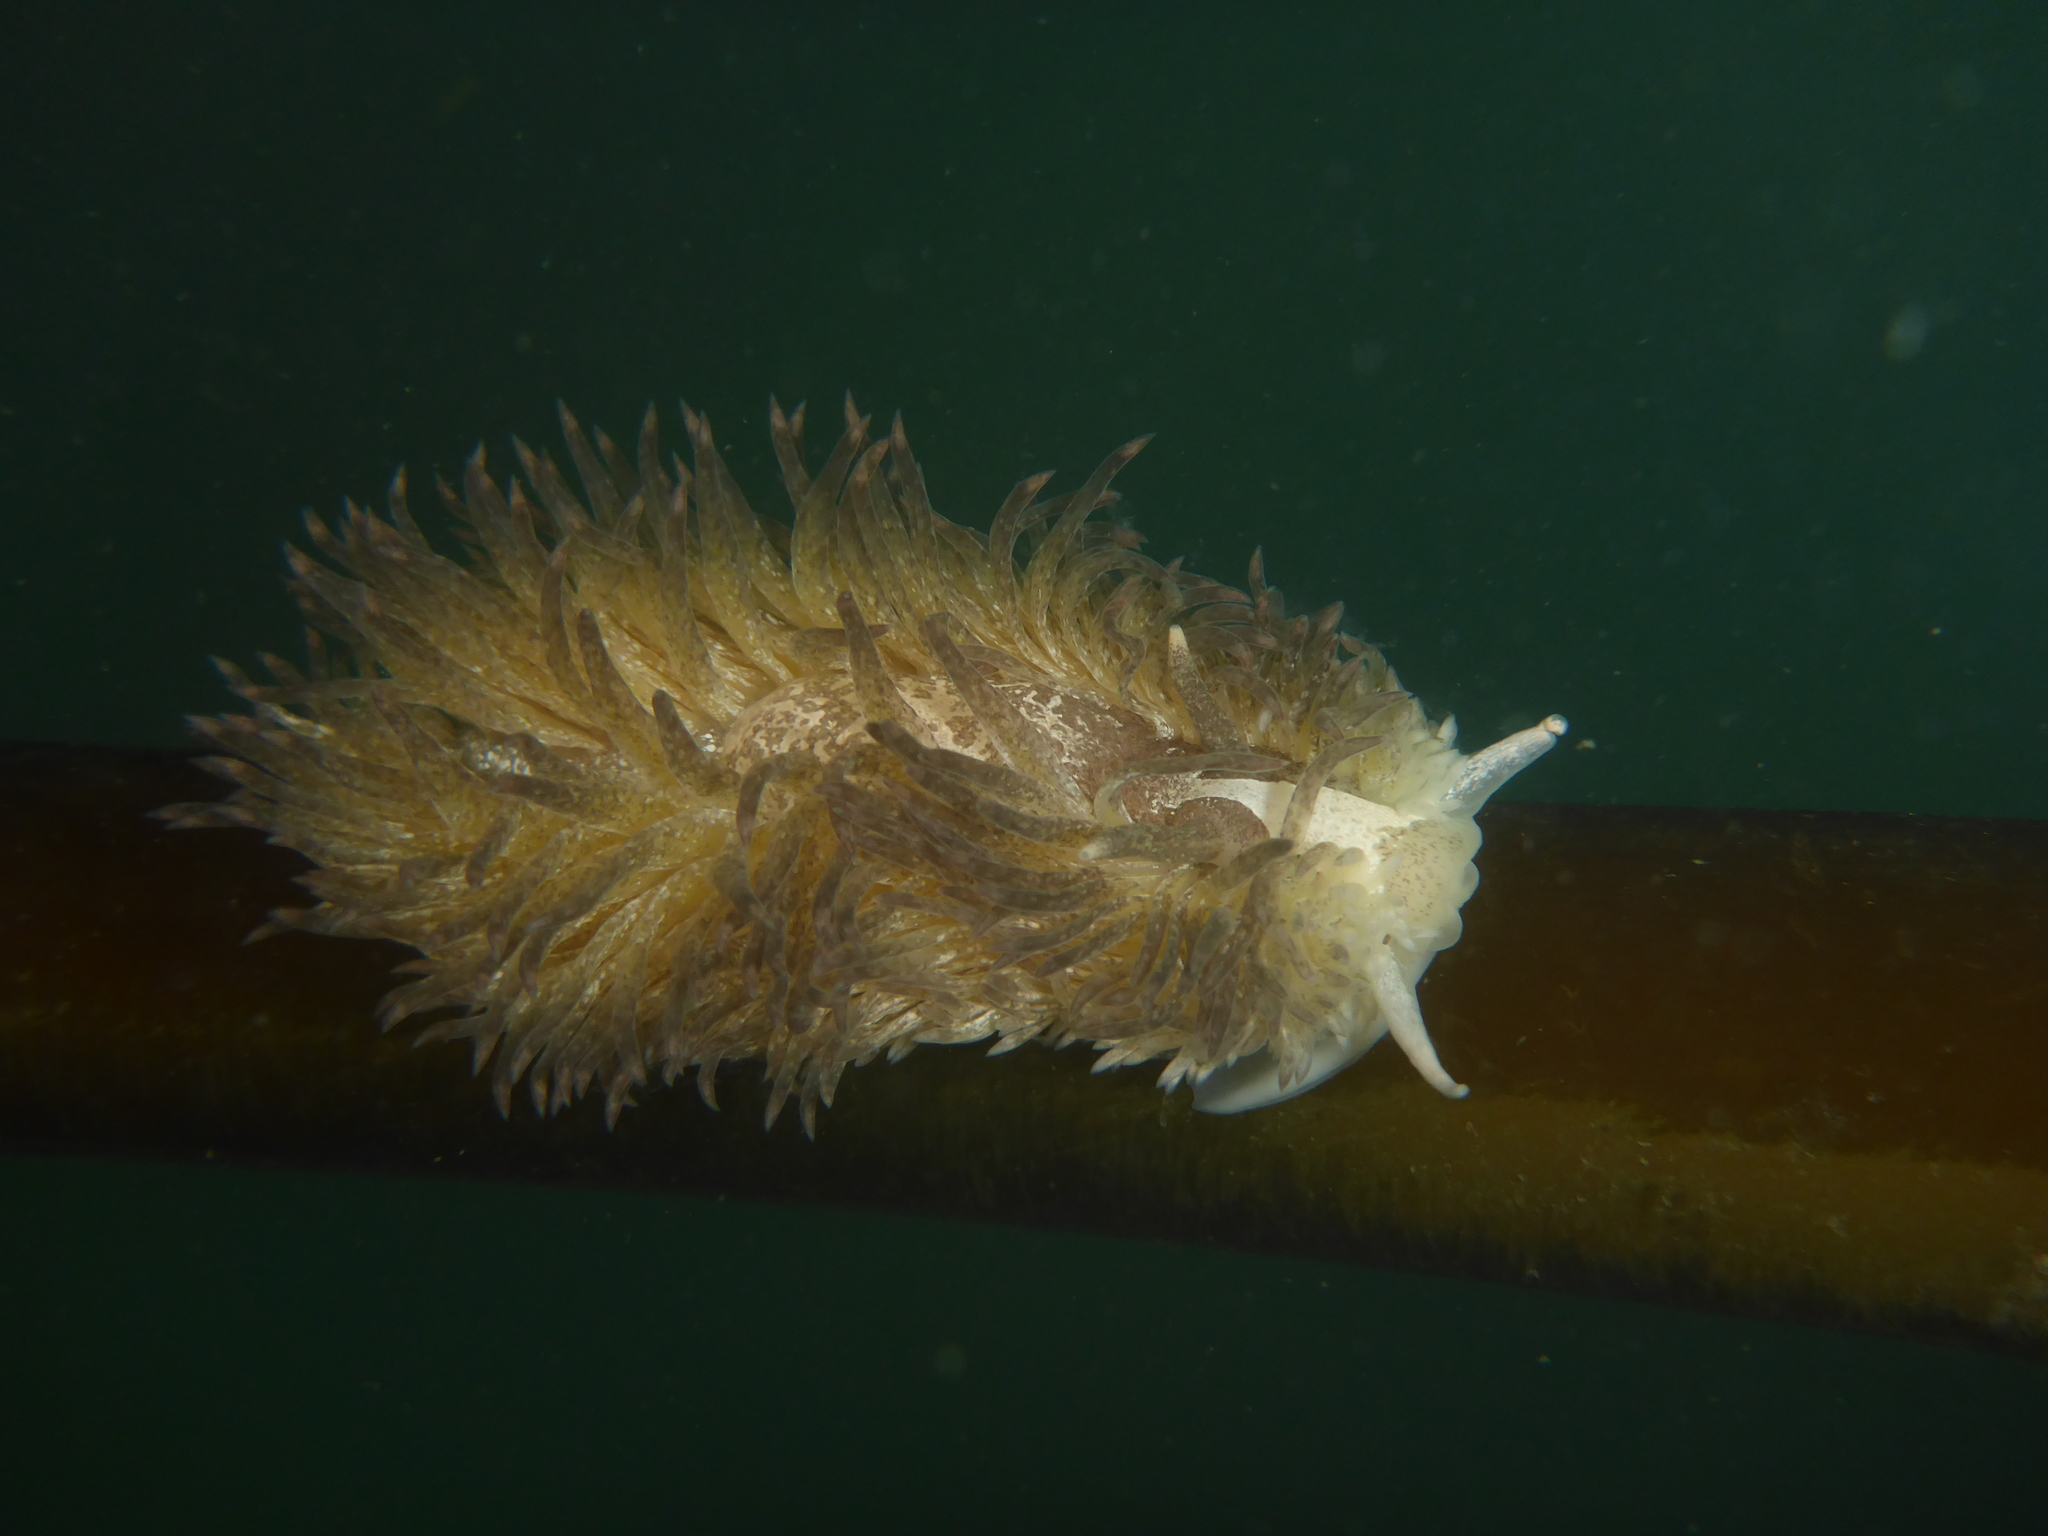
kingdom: Animalia
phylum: Mollusca
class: Gastropoda
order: Nudibranchia
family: Aeolidiidae
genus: Aeolidia
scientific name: Aeolidia papillosa
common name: Common grey sea slug
